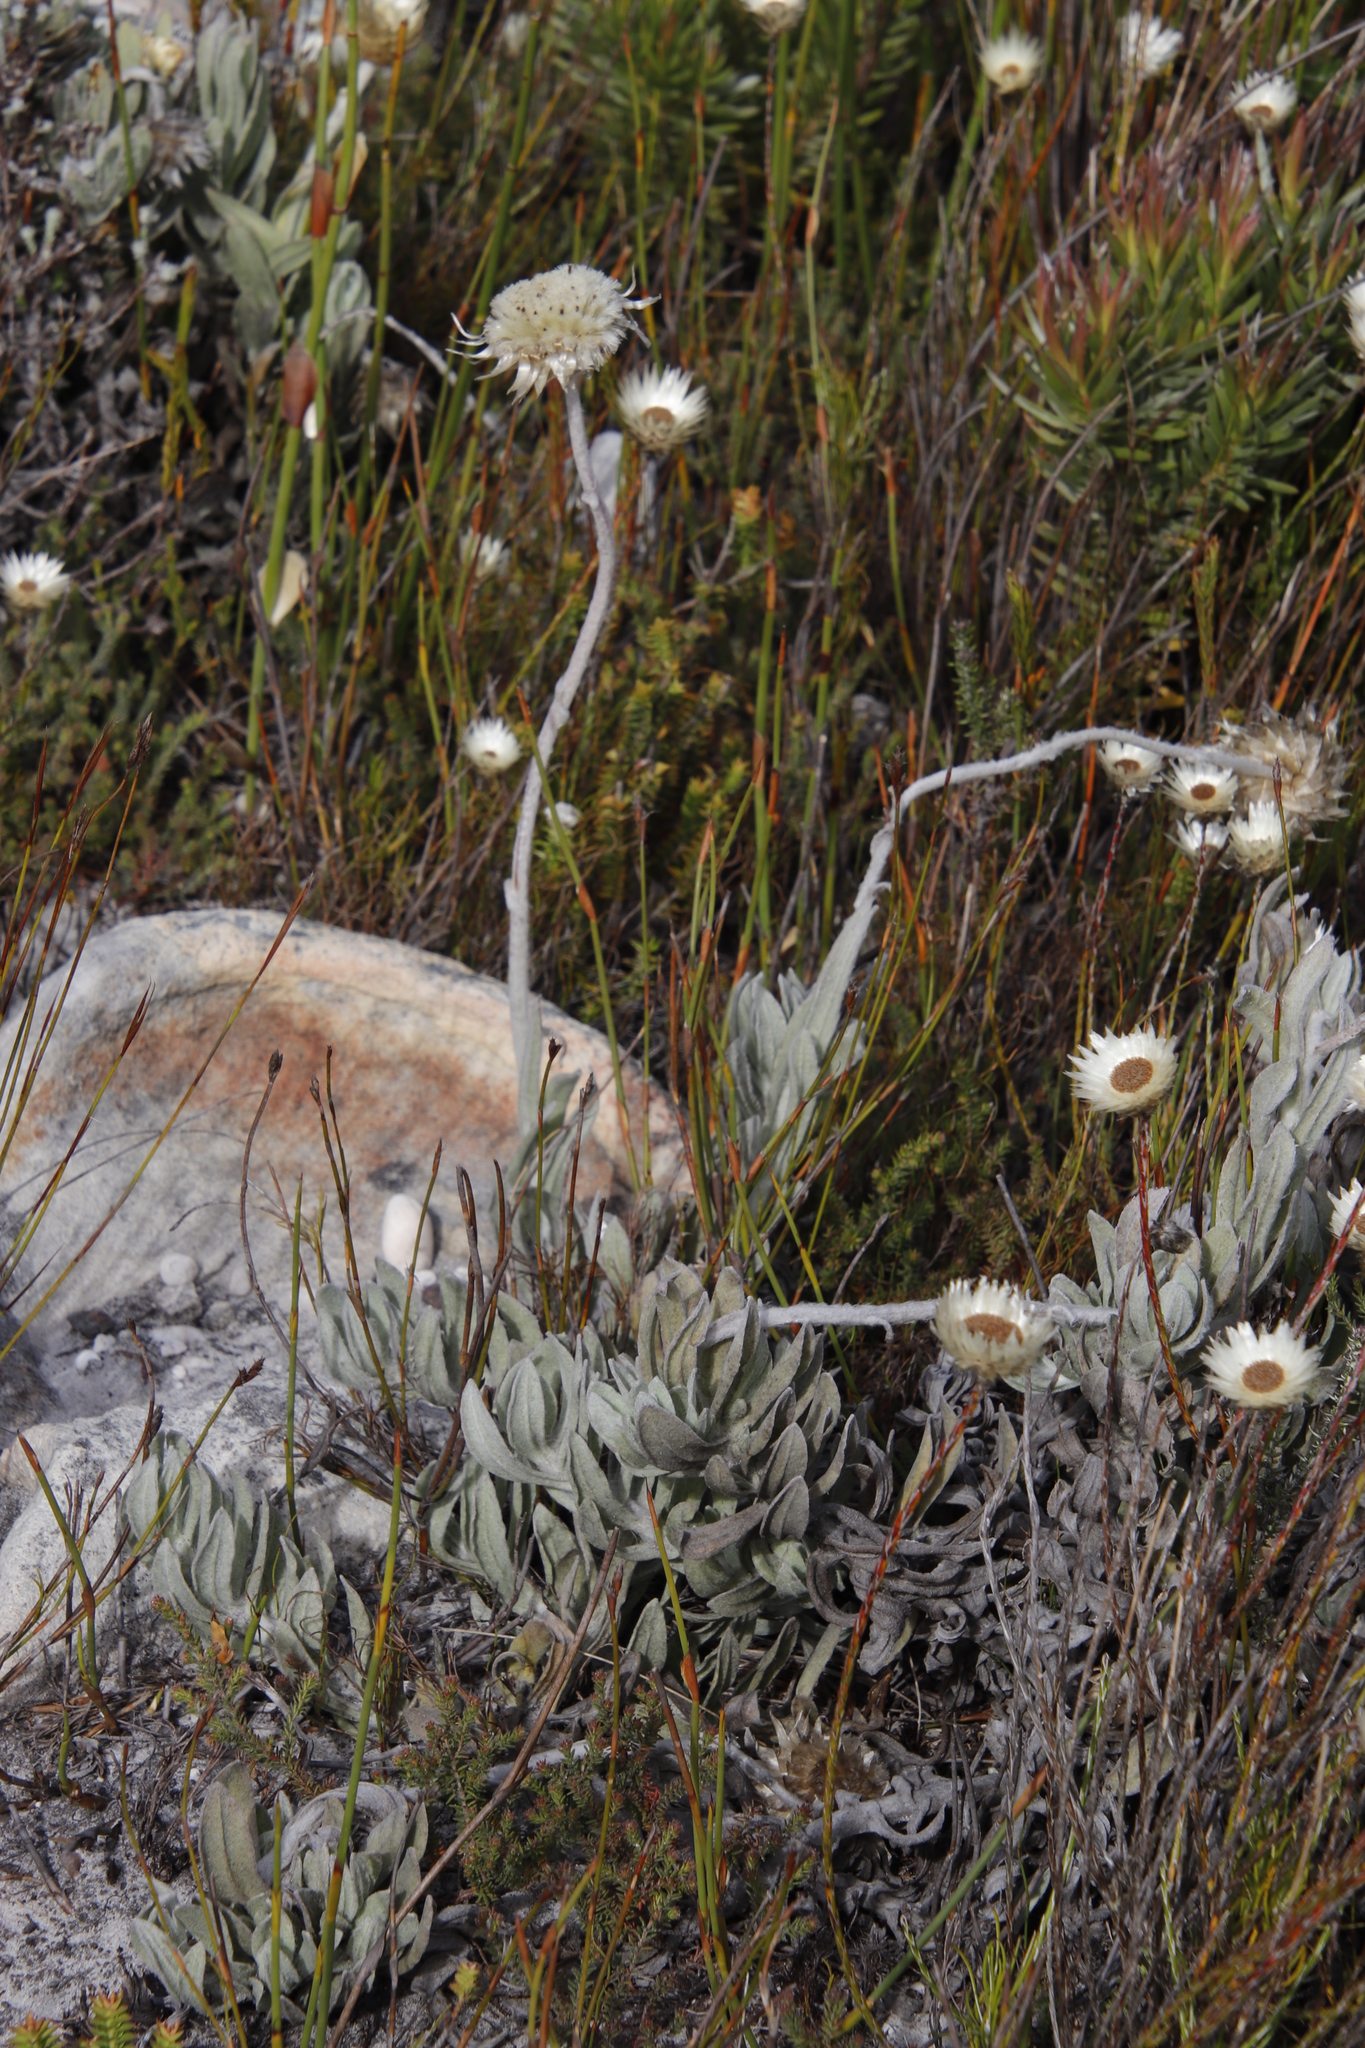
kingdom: Plantae
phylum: Tracheophyta
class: Magnoliopsida
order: Asterales
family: Asteraceae
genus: Syncarpha
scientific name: Syncarpha speciosissima
